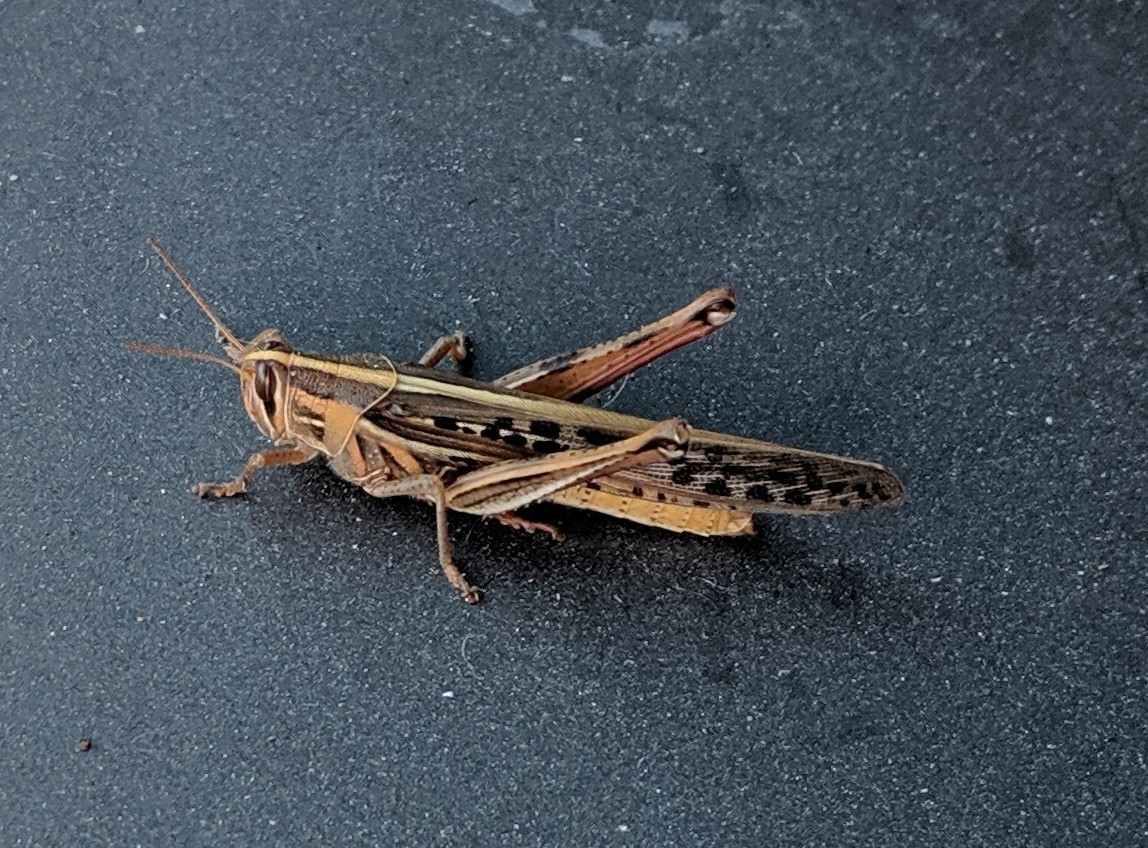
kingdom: Animalia
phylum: Arthropoda
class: Insecta
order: Orthoptera
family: Acrididae
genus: Schistocerca
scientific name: Schistocerca americana
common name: American bird locust
